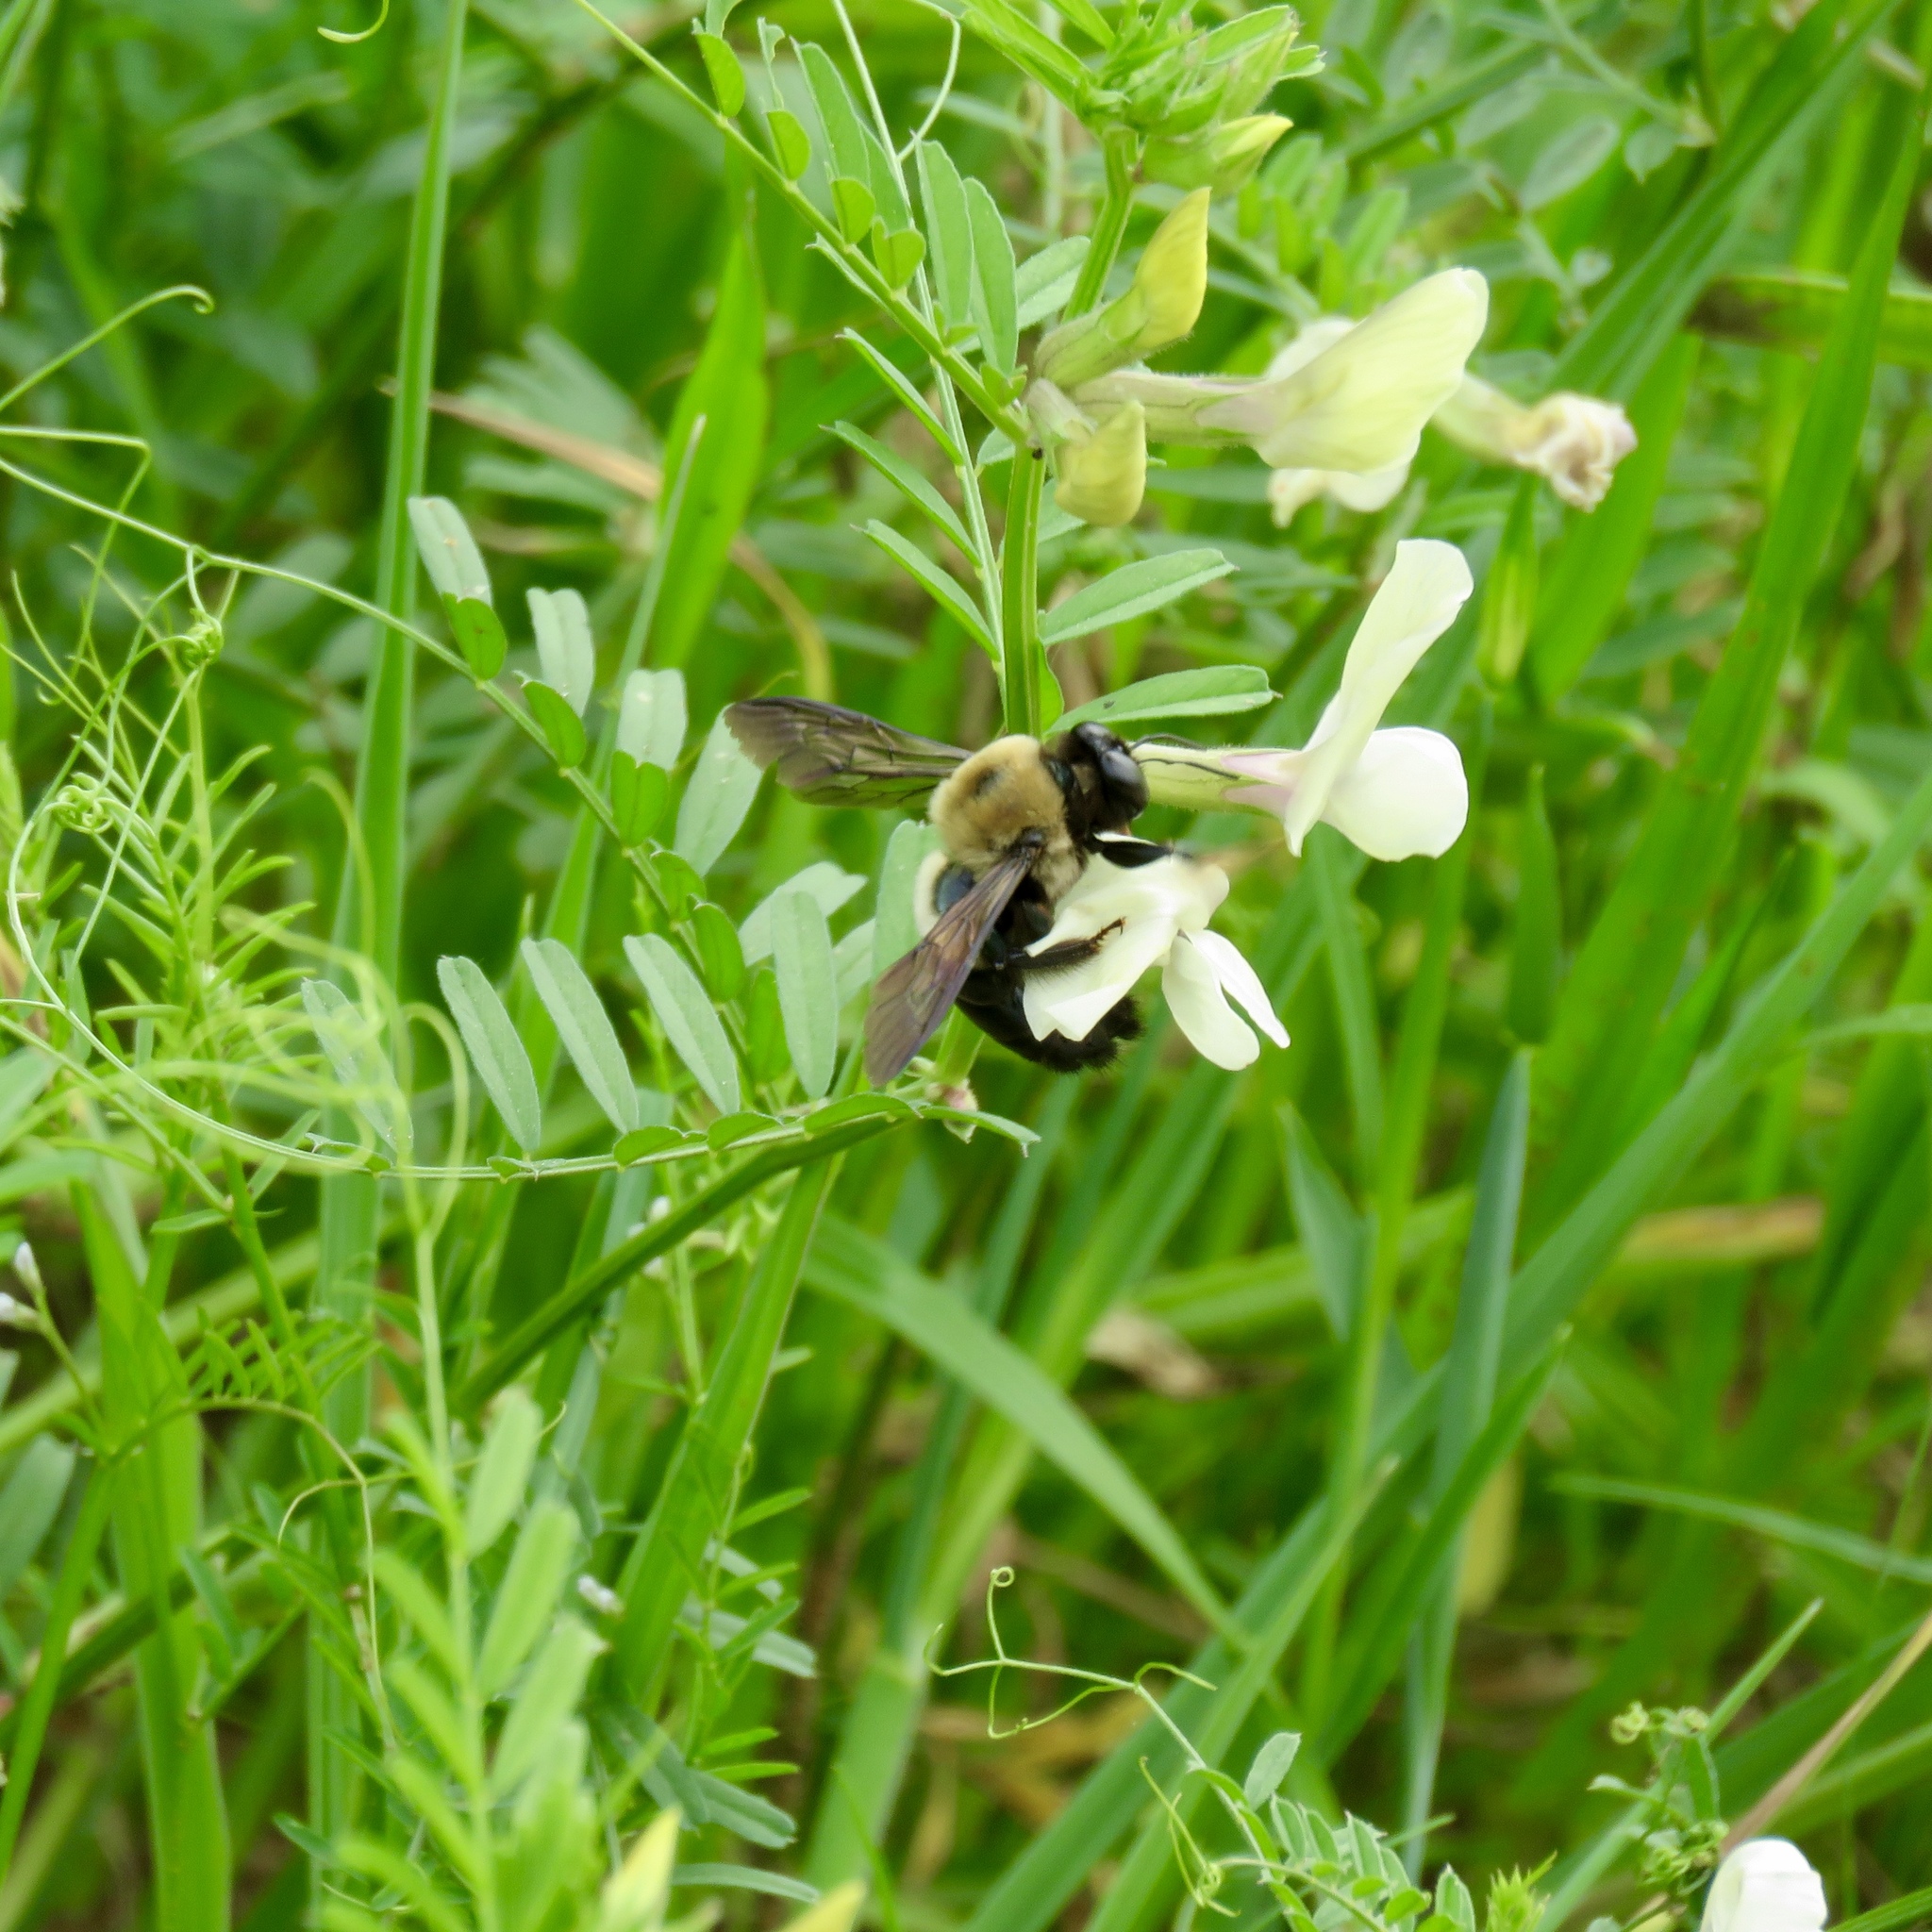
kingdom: Animalia
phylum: Arthropoda
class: Insecta
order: Hymenoptera
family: Apidae
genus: Xylocopa
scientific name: Xylocopa virginica
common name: Carpenter bee
